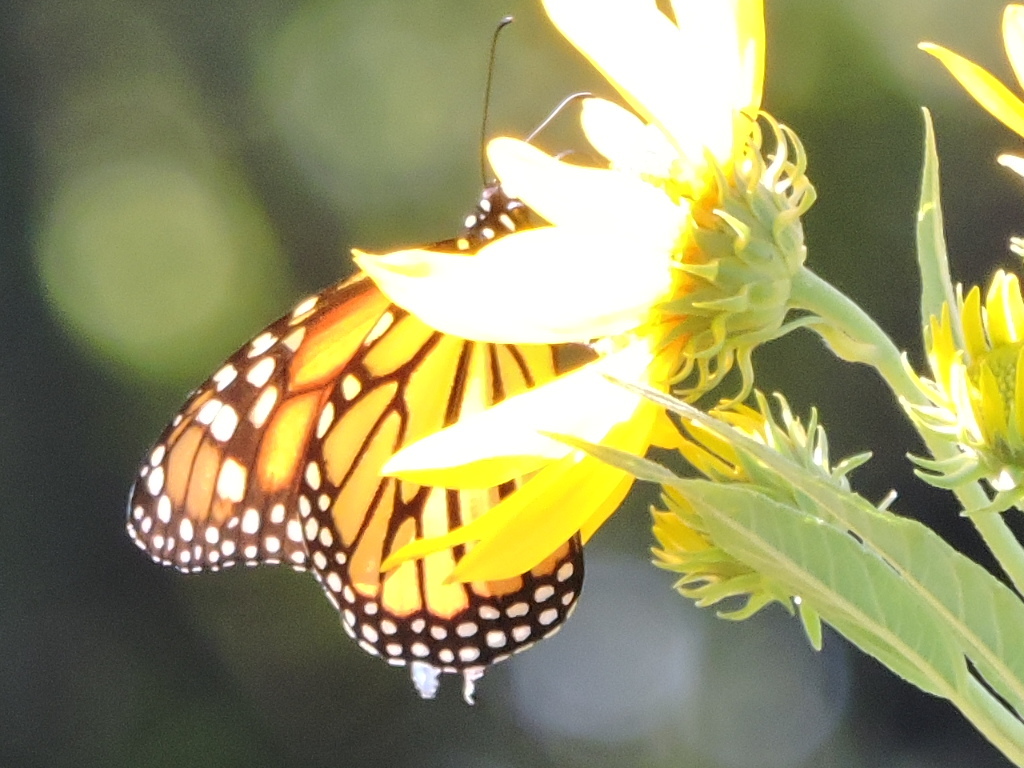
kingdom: Animalia
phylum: Arthropoda
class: Insecta
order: Lepidoptera
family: Nymphalidae
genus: Danaus
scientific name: Danaus plexippus
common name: Monarch
